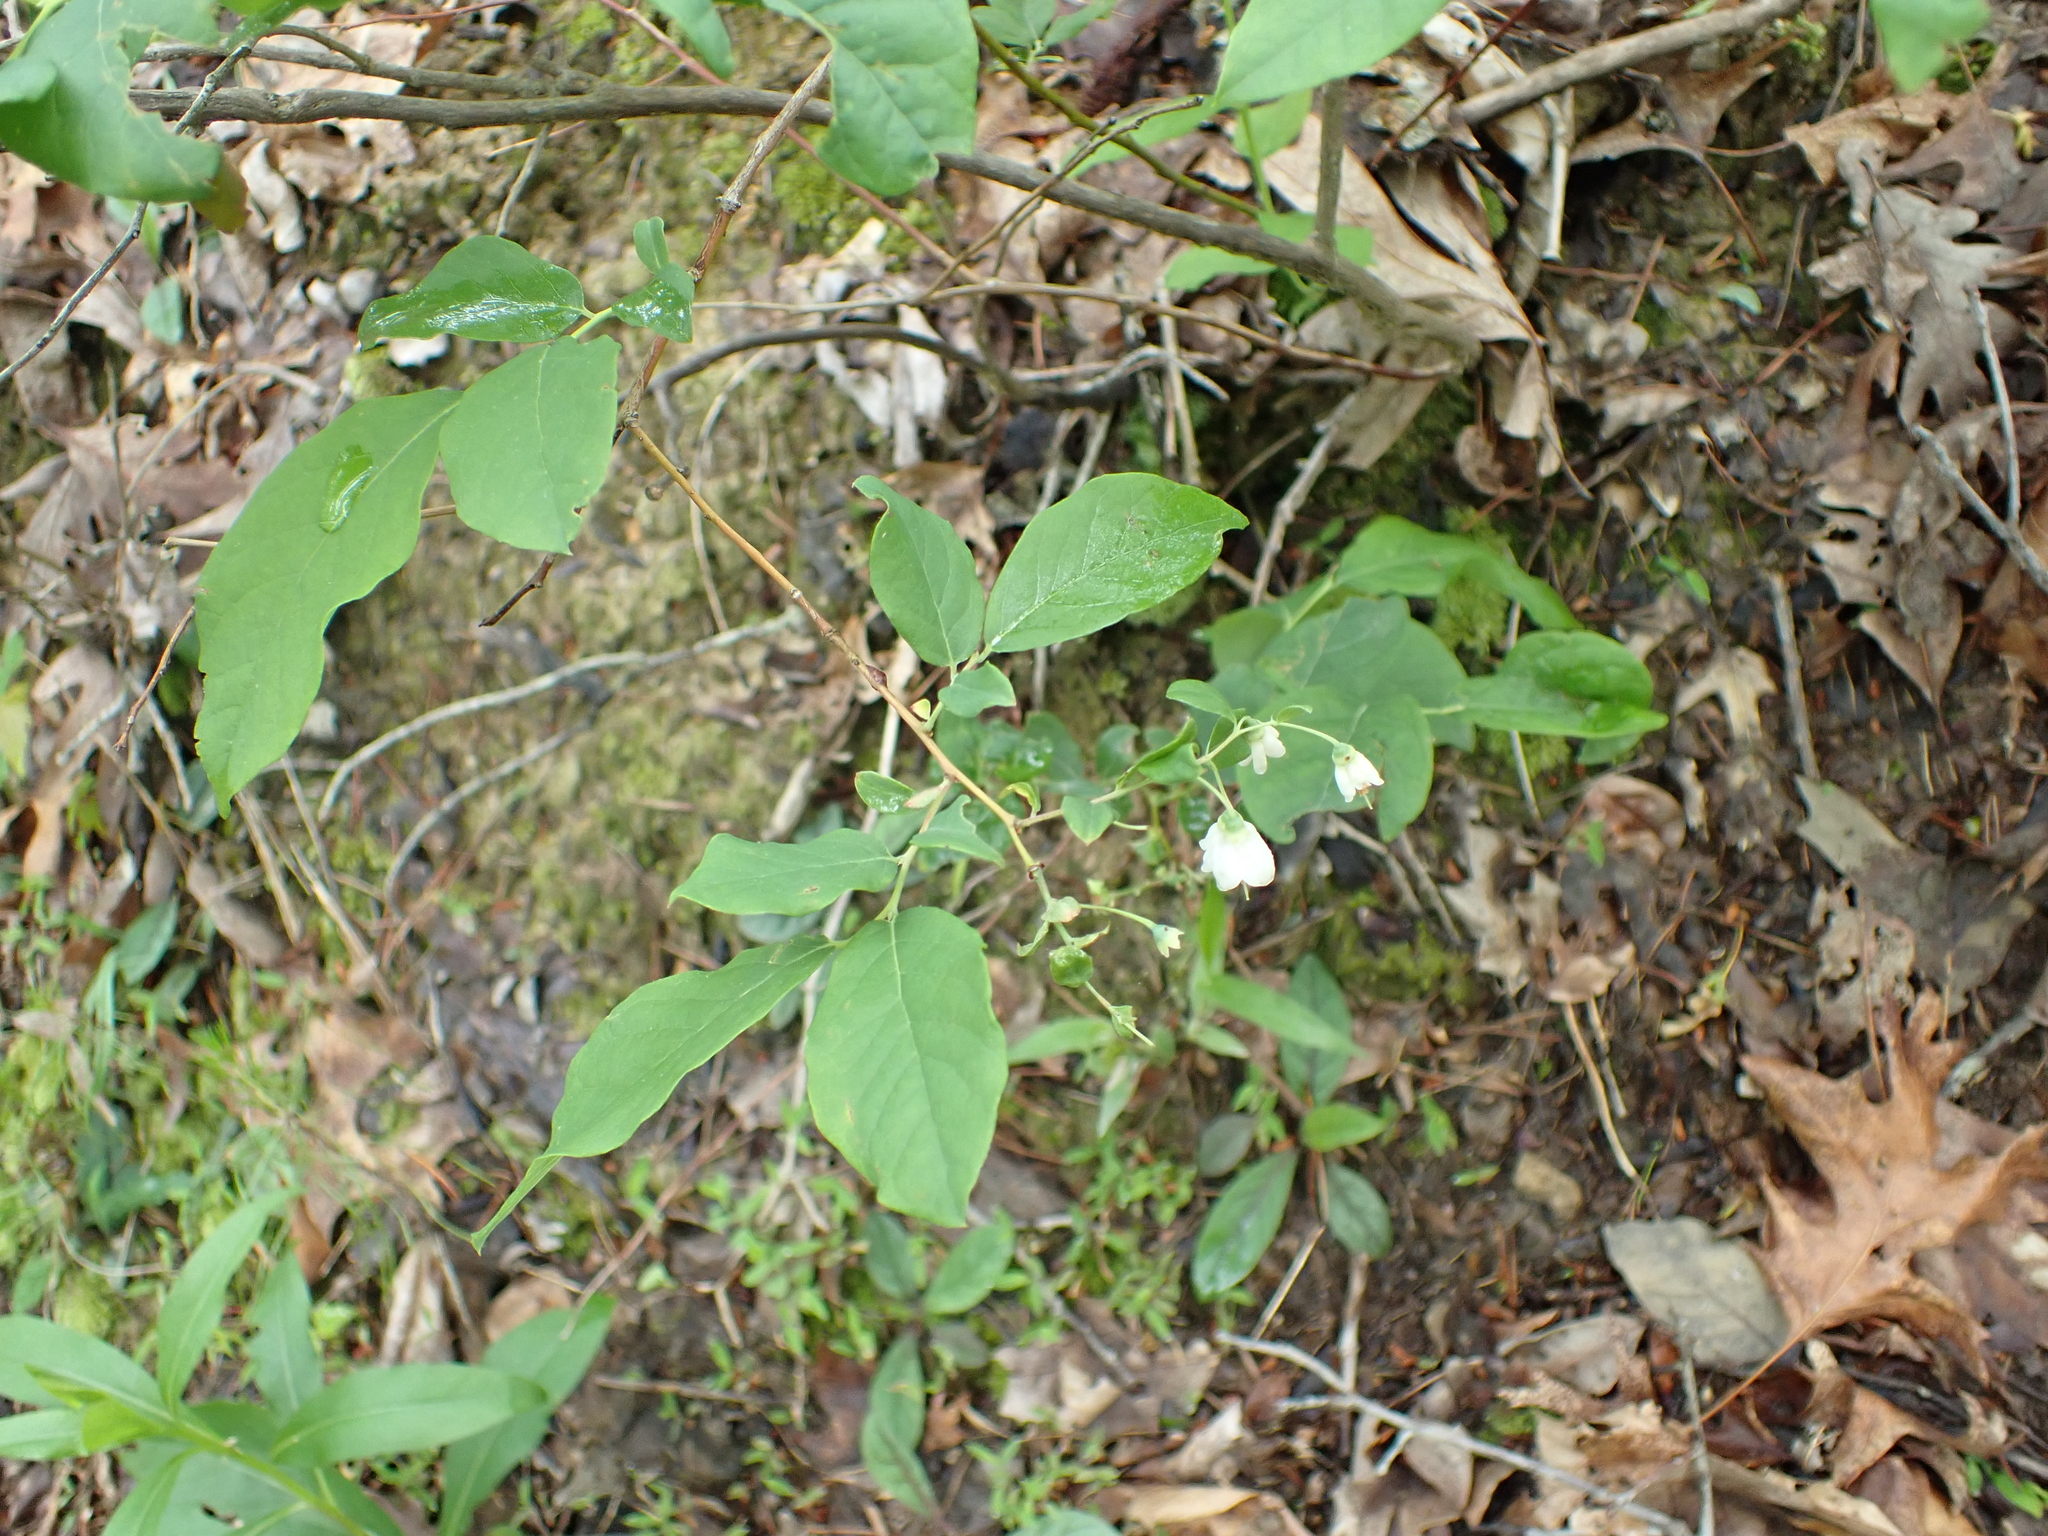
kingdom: Plantae
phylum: Tracheophyta
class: Magnoliopsida
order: Ericales
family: Ericaceae
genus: Vaccinium
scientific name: Vaccinium stamineum
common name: Deerberry
